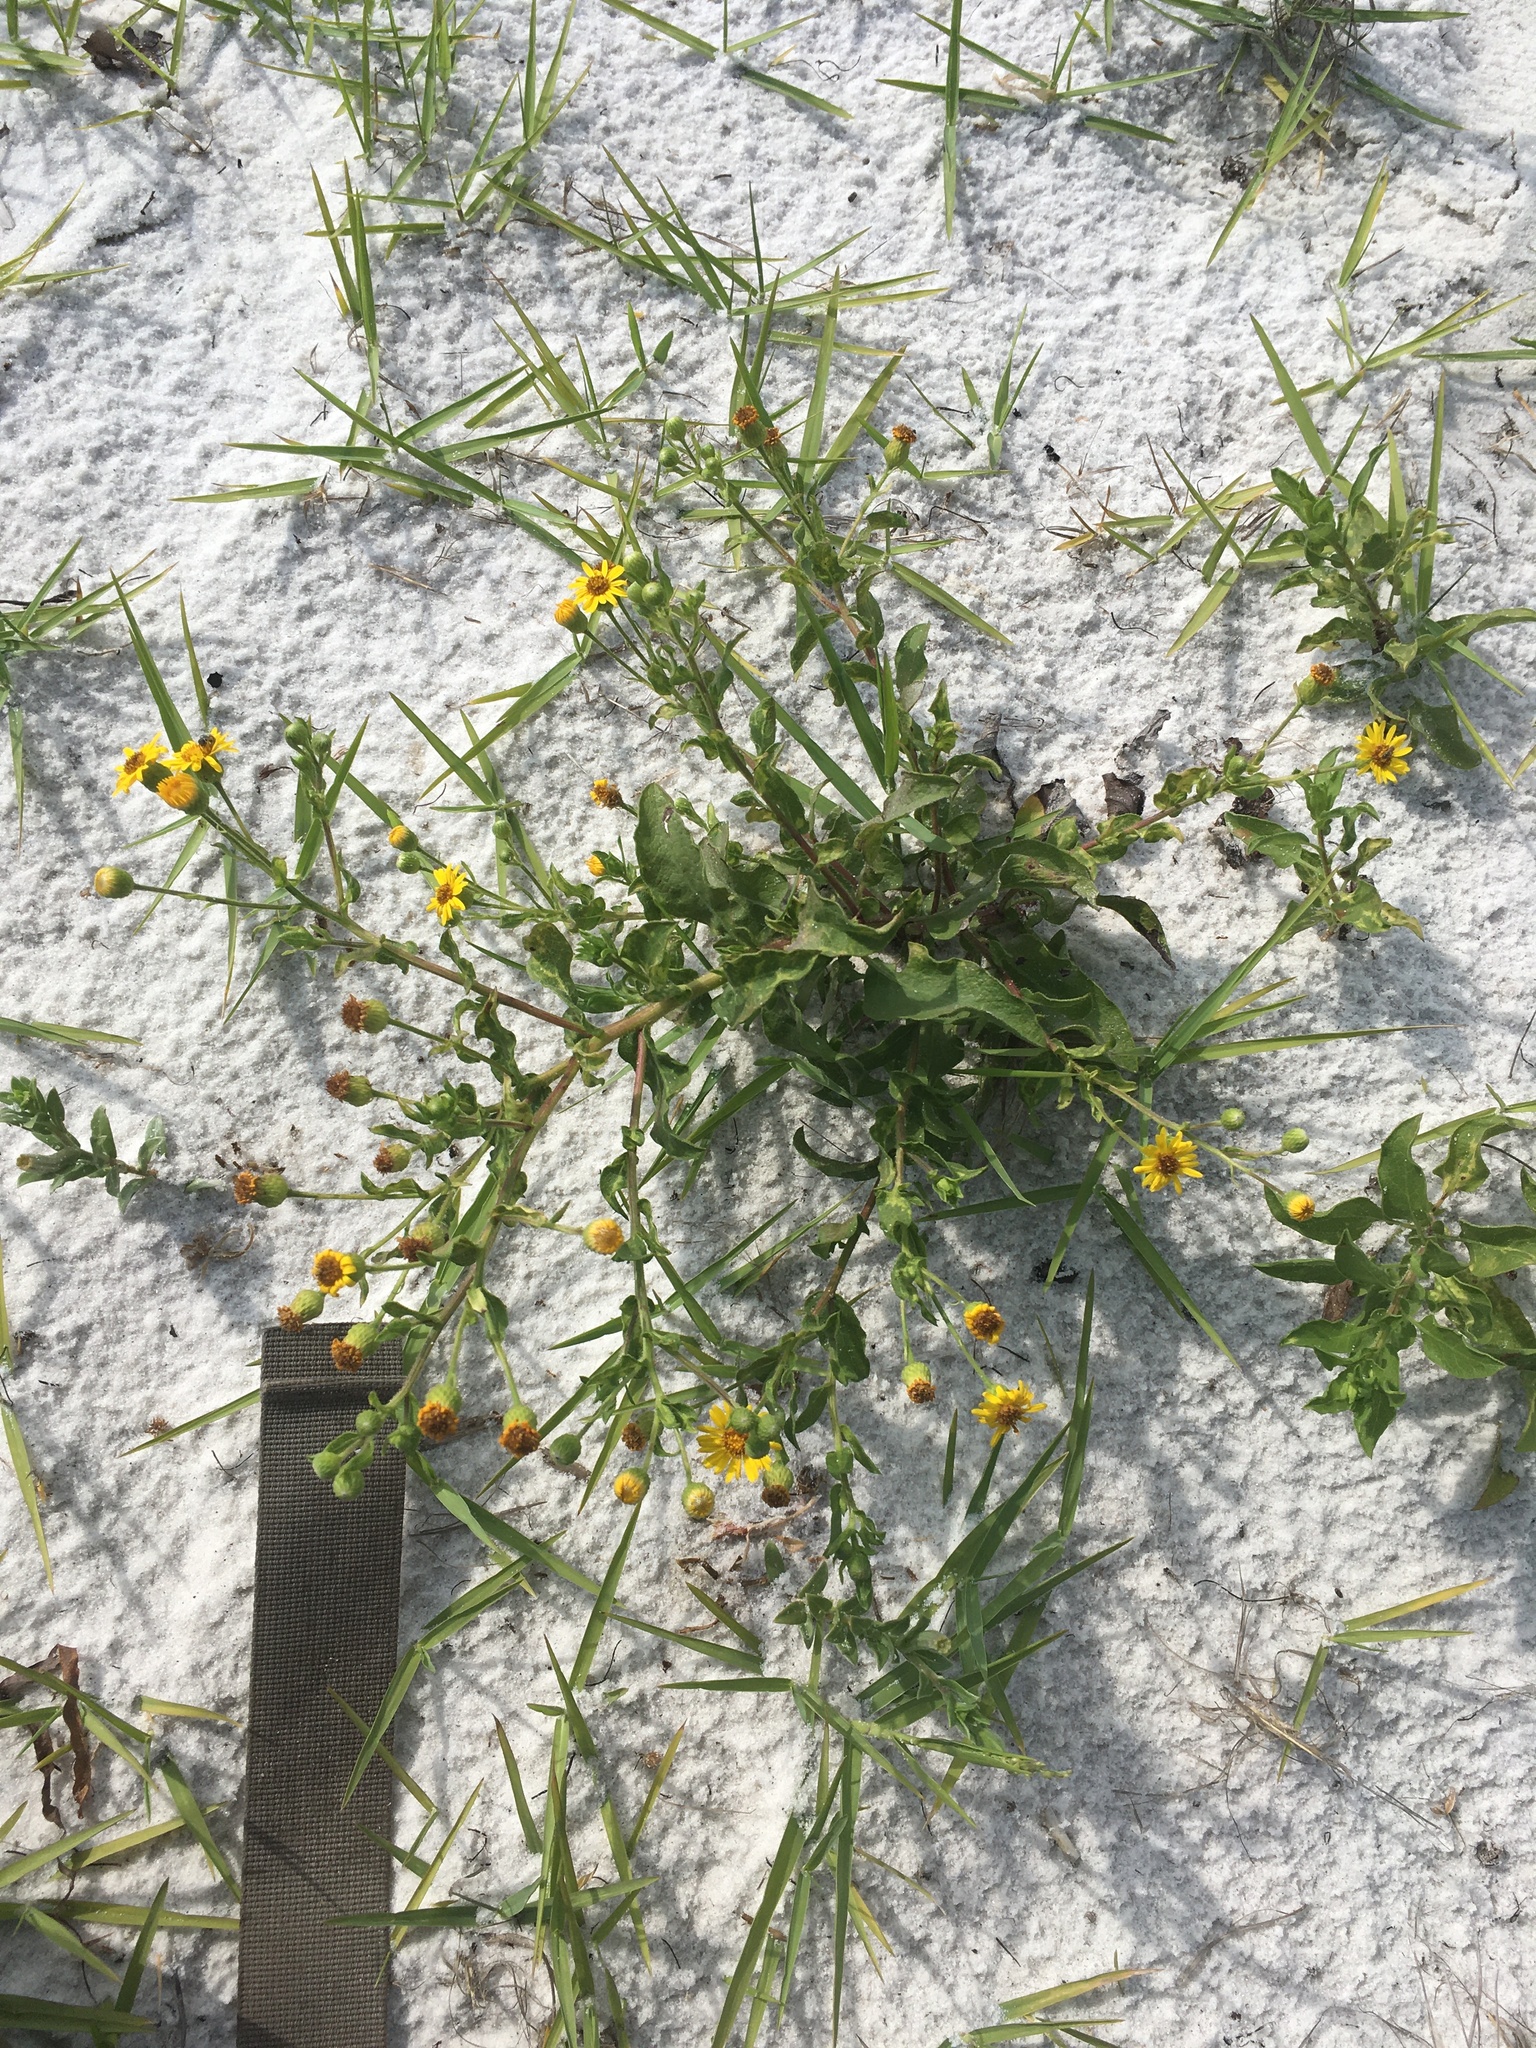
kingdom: Plantae
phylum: Tracheophyta
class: Magnoliopsida
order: Asterales
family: Asteraceae
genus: Heterotheca
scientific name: Heterotheca subaxillaris
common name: Camphorweed
